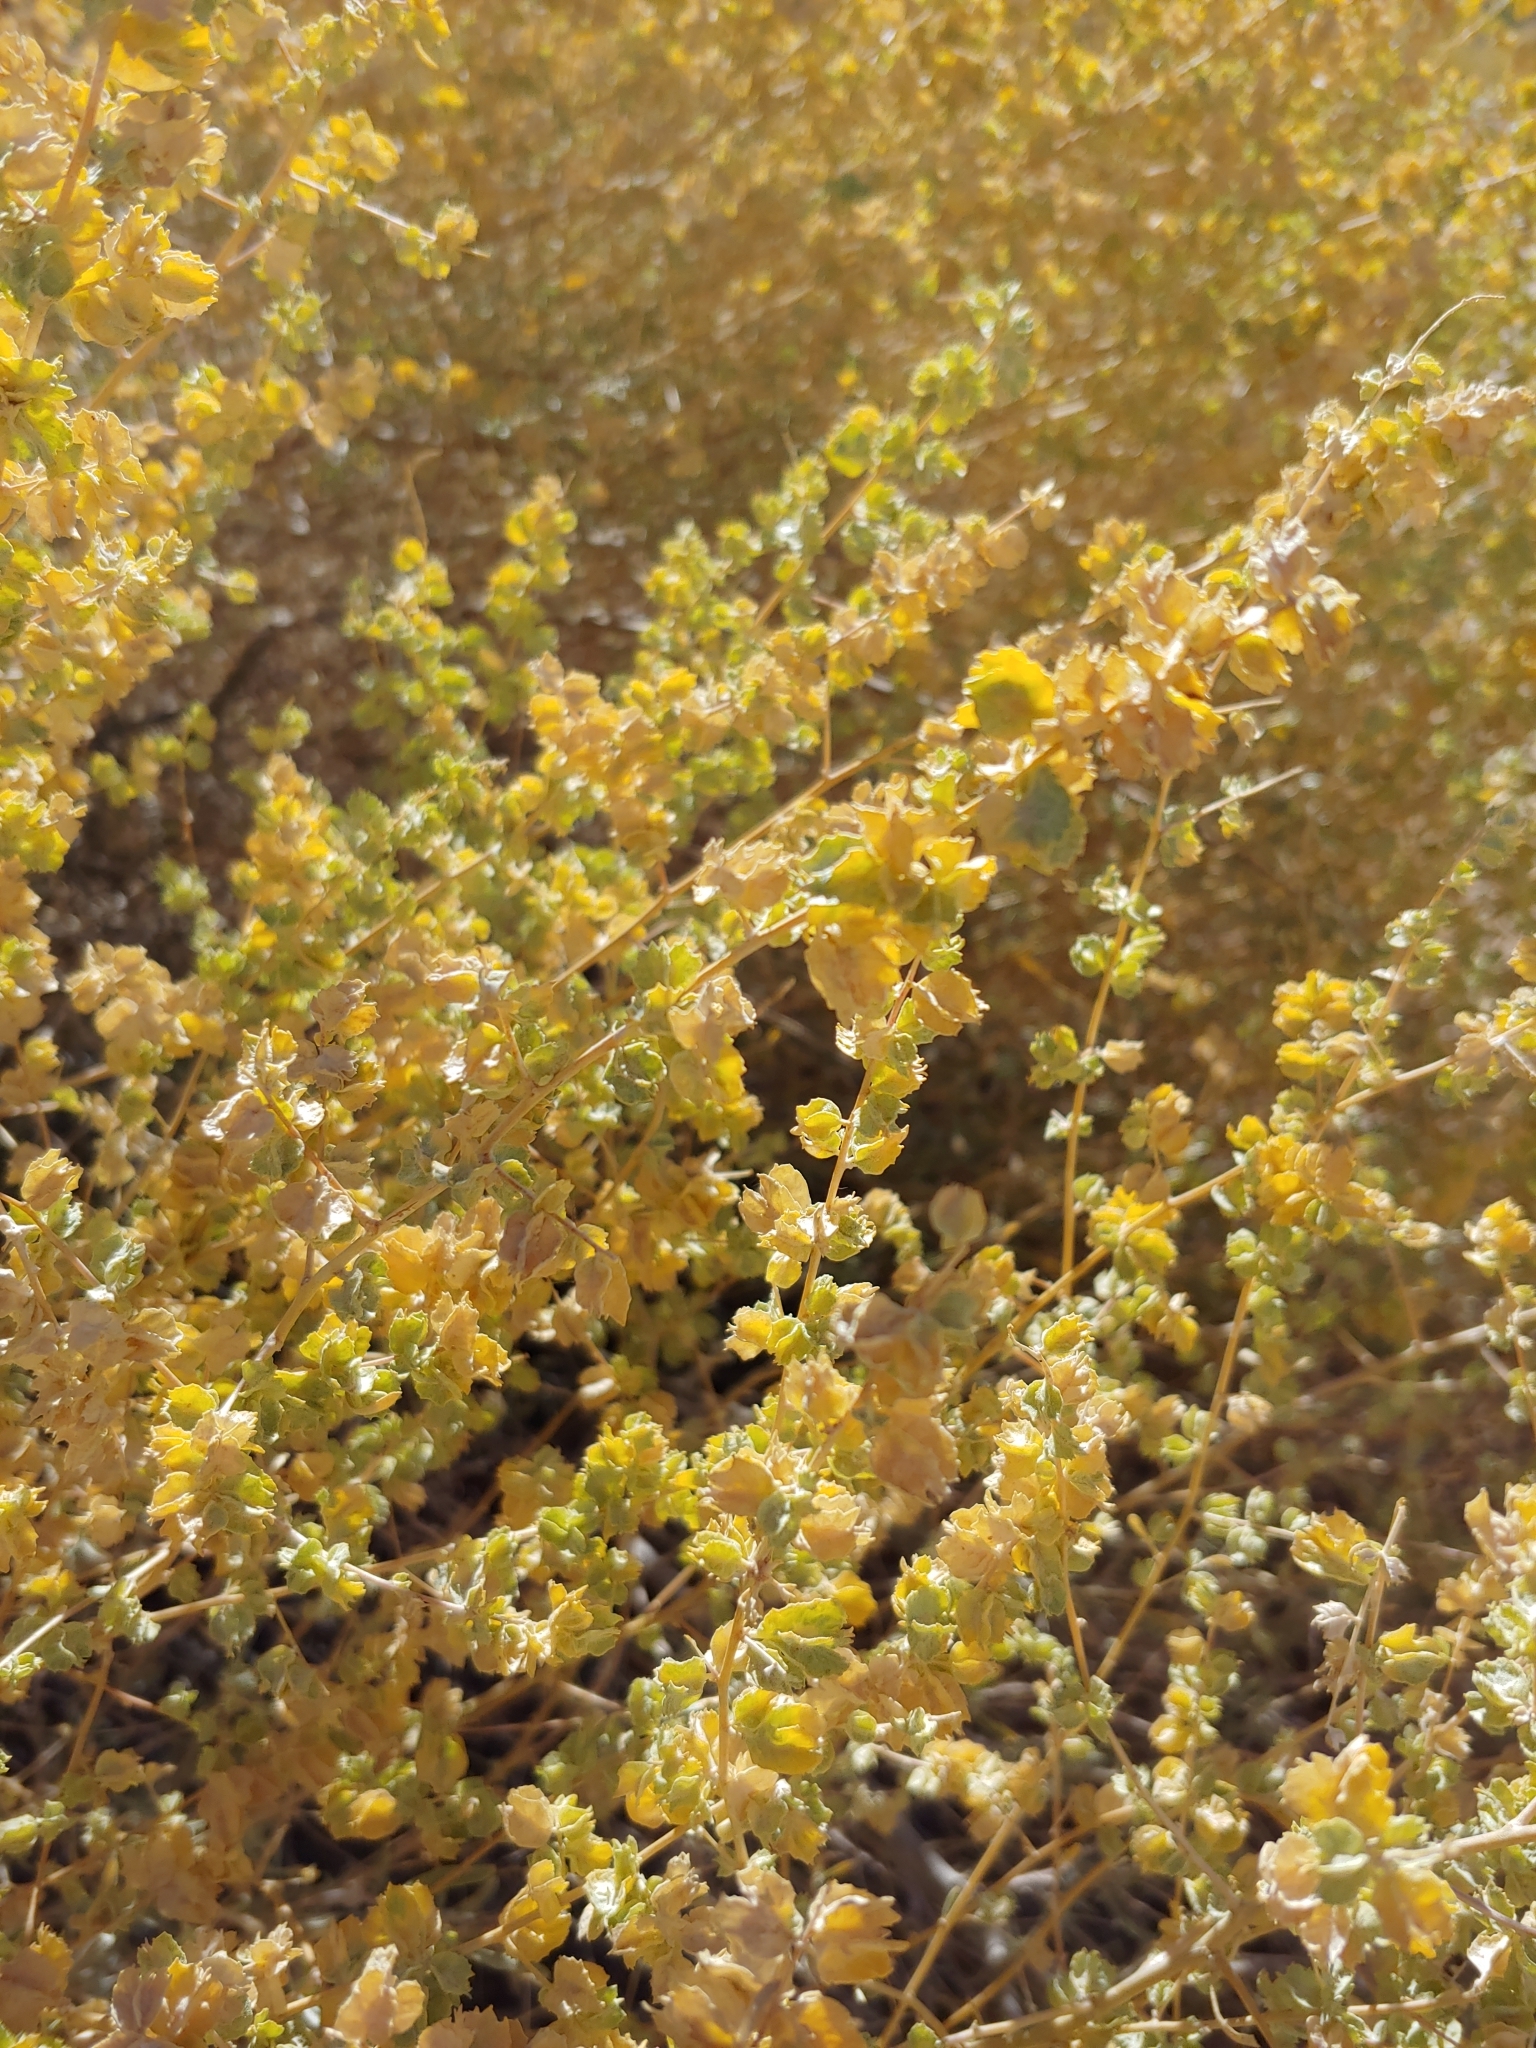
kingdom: Plantae
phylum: Tracheophyta
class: Magnoliopsida
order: Caryophyllales
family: Amaranthaceae
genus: Atriplex
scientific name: Atriplex canescens
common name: Four-wing saltbush
